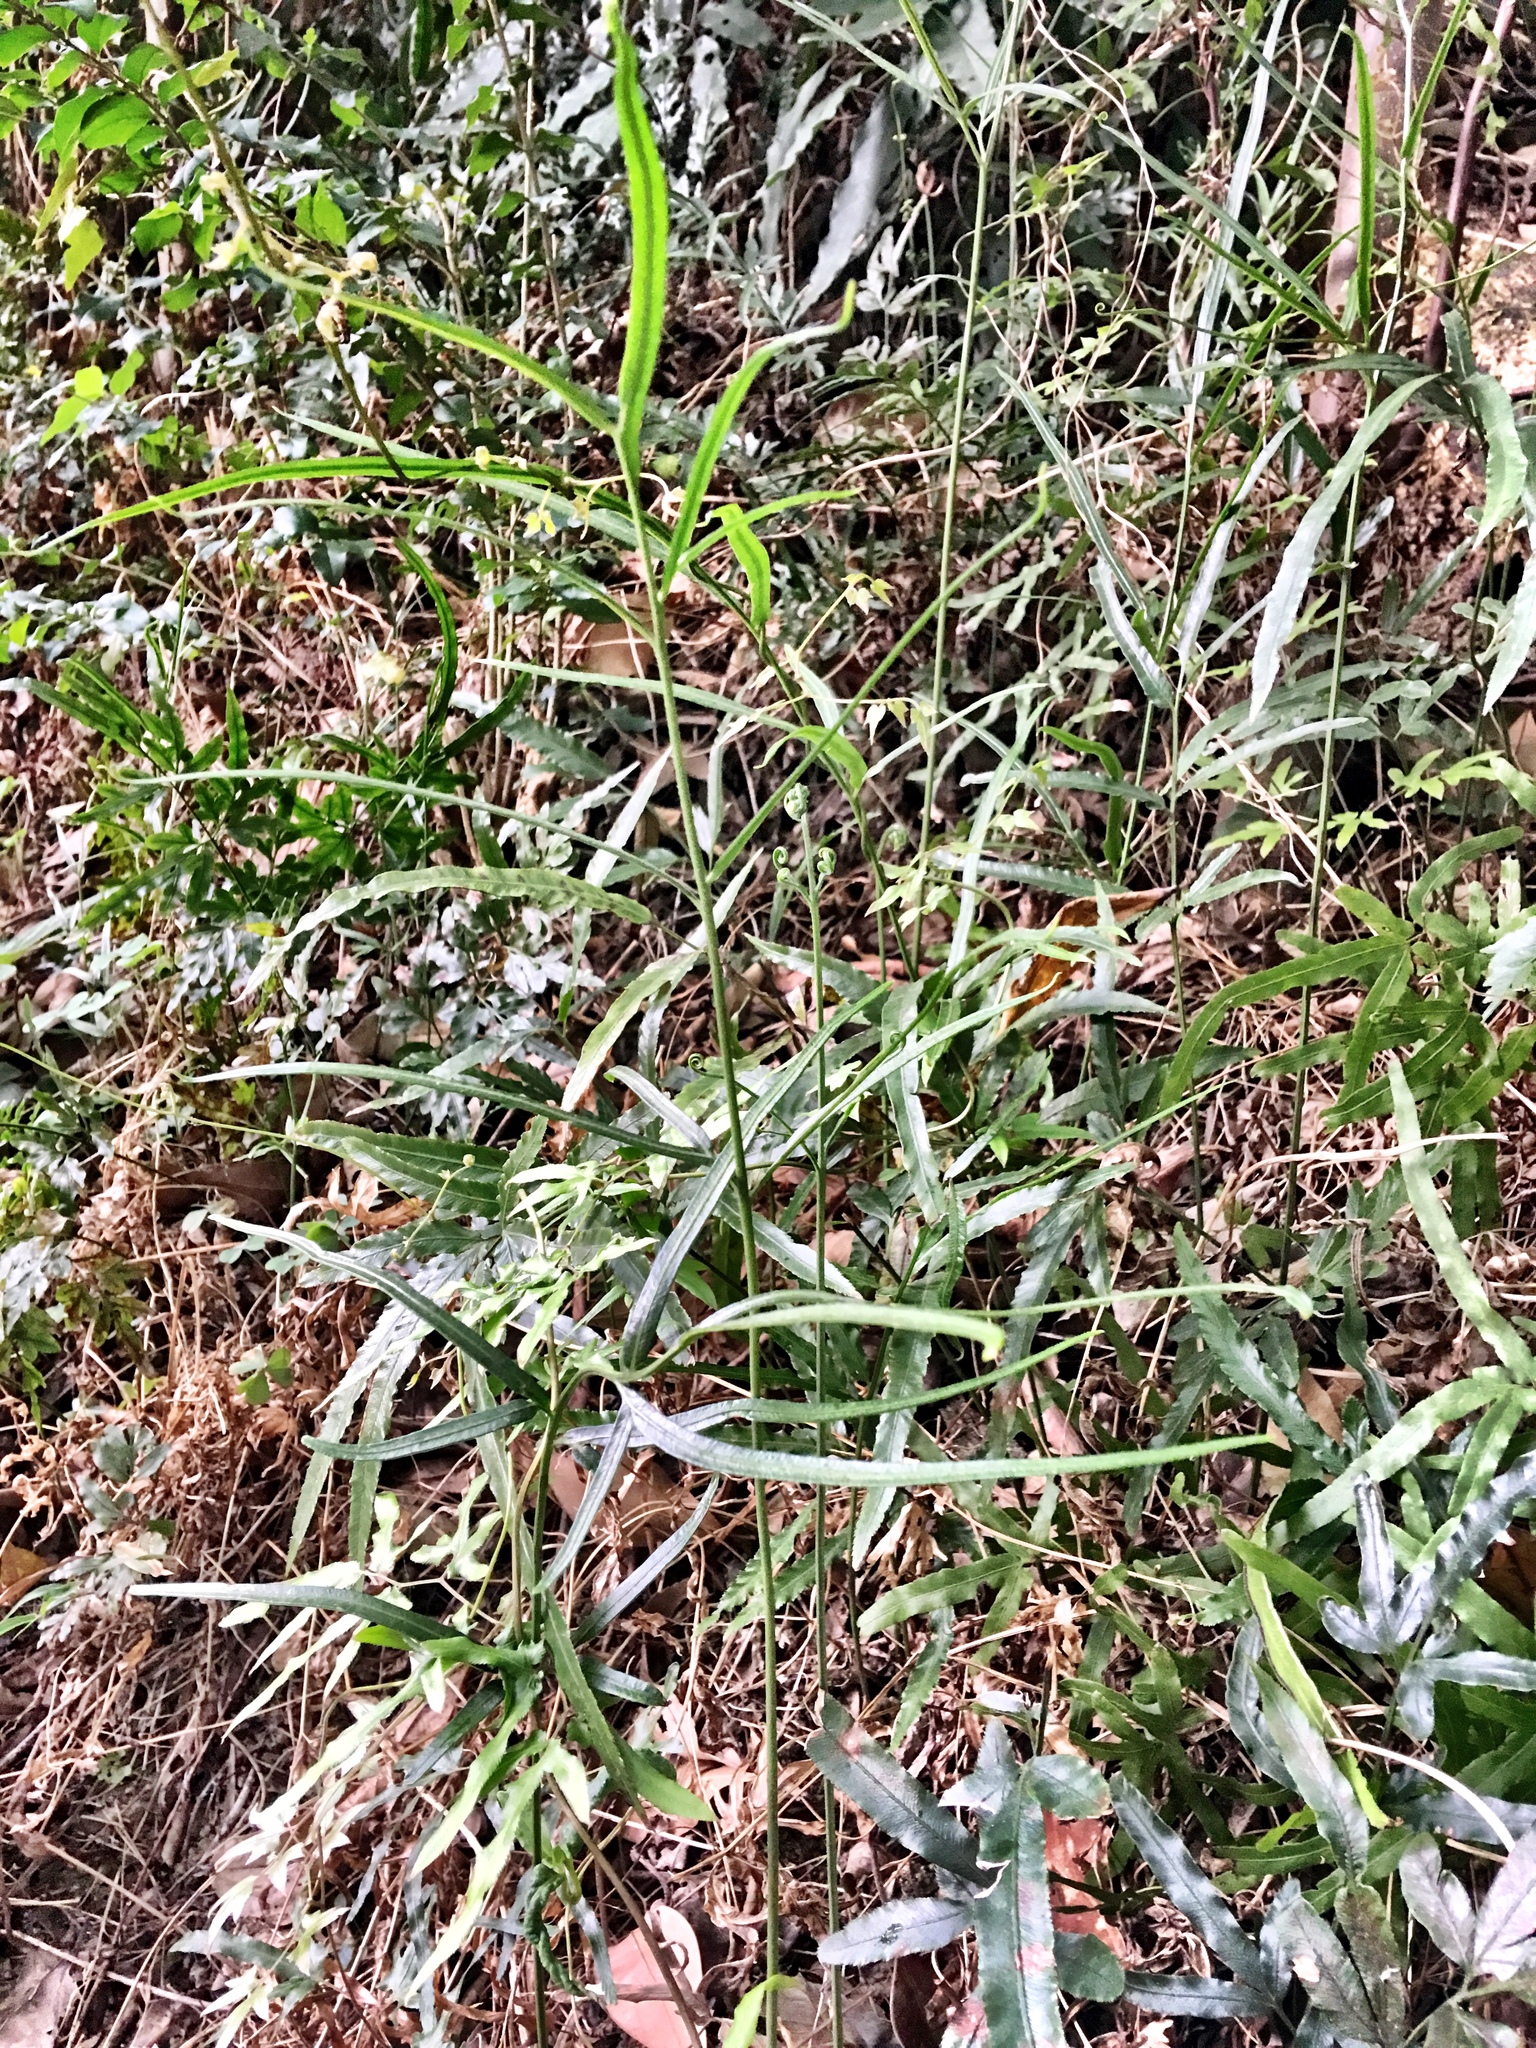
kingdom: Plantae
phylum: Tracheophyta
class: Polypodiopsida
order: Polypodiales
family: Pteridaceae
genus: Pteris
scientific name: Pteris ensiformis
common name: Sword brake
